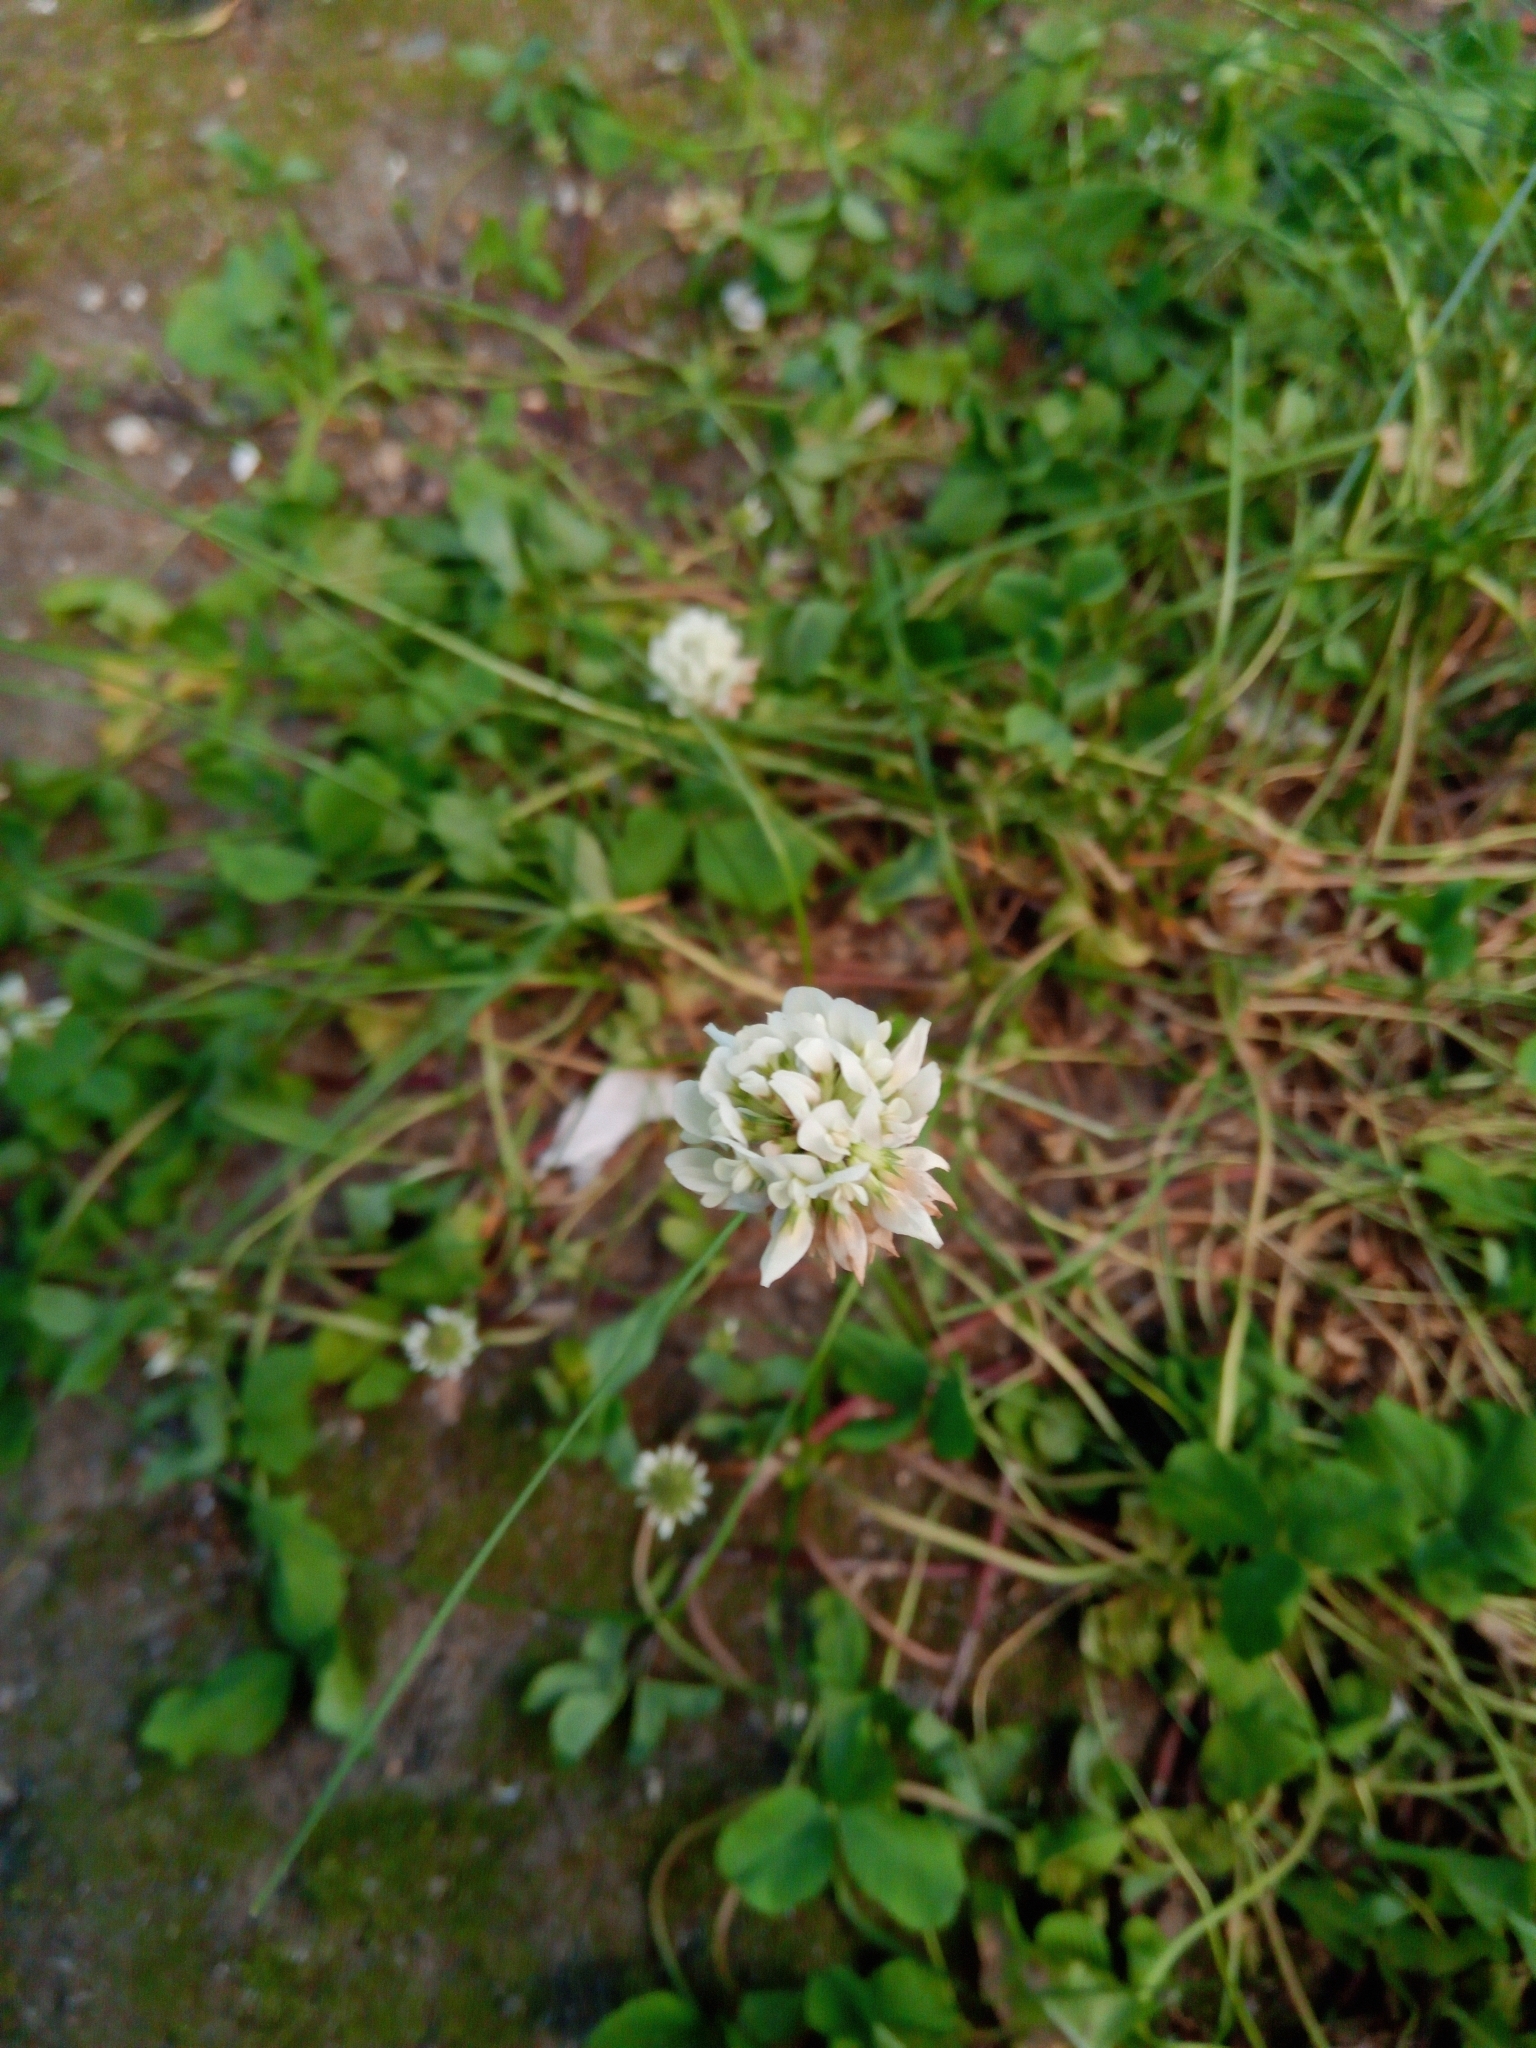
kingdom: Plantae
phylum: Tracheophyta
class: Magnoliopsida
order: Fabales
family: Fabaceae
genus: Trifolium
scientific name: Trifolium repens
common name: White clover
